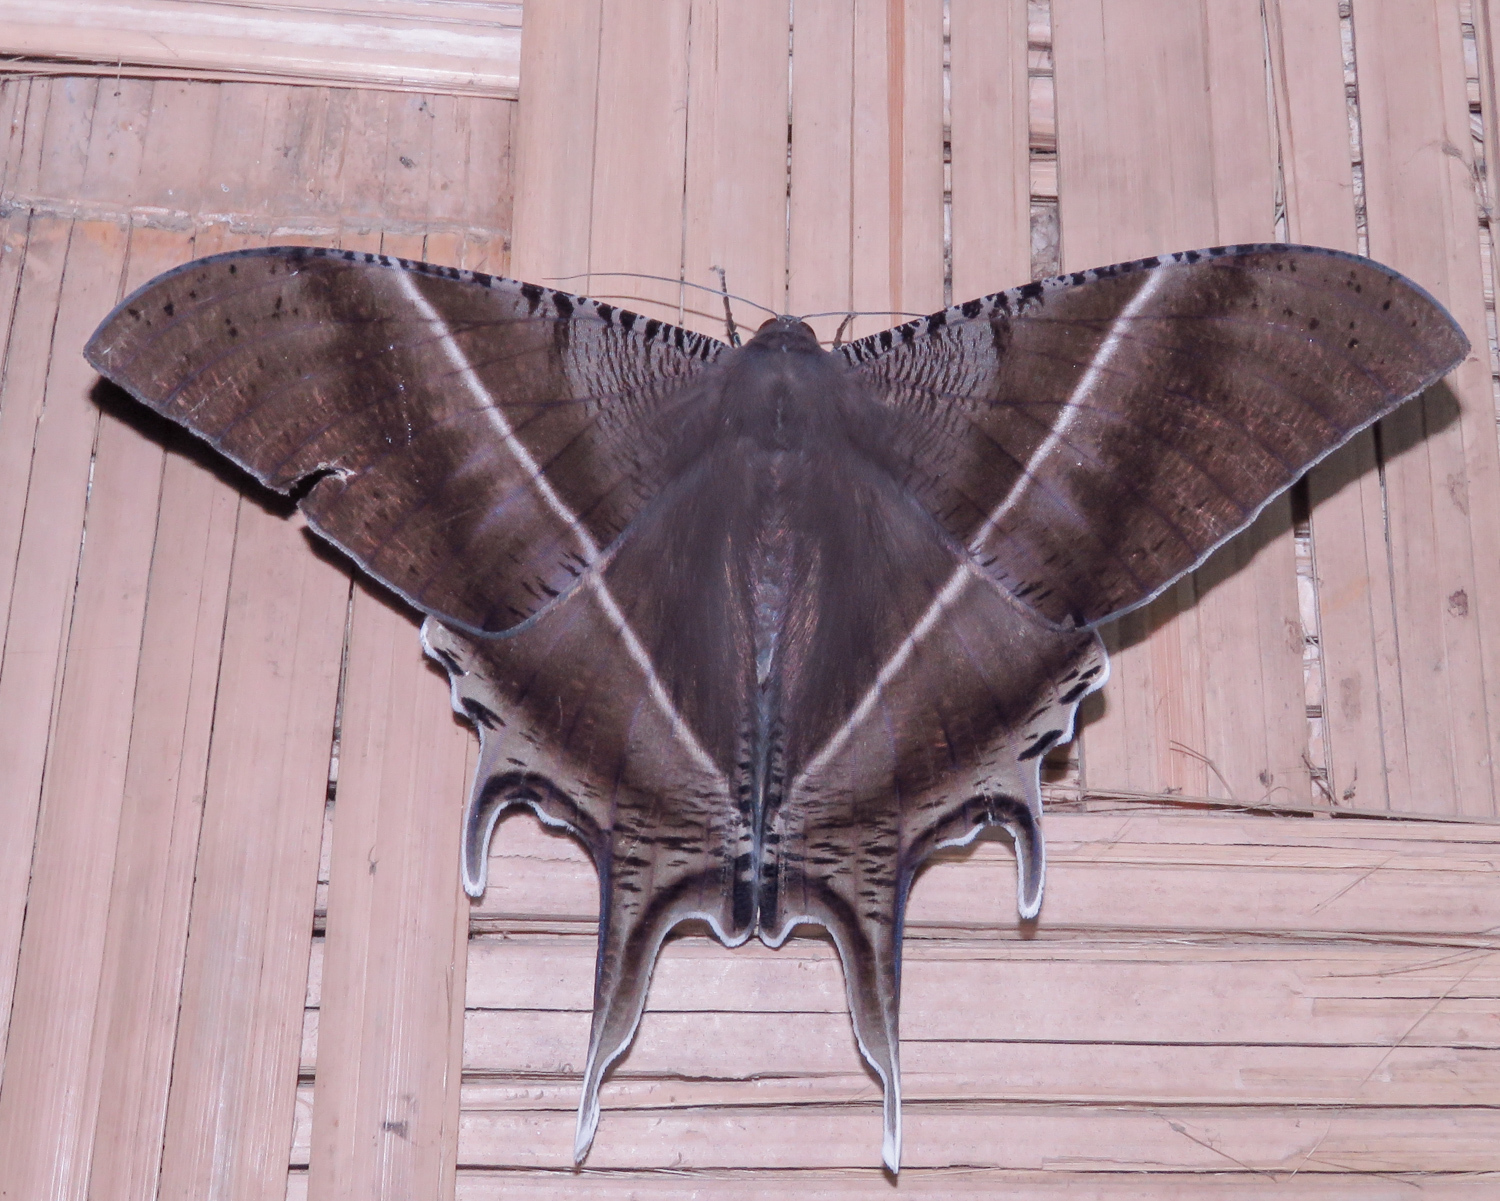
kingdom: Animalia
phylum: Arthropoda
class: Insecta
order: Lepidoptera
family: Uraniidae
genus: Lyssa
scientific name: Lyssa zampa
